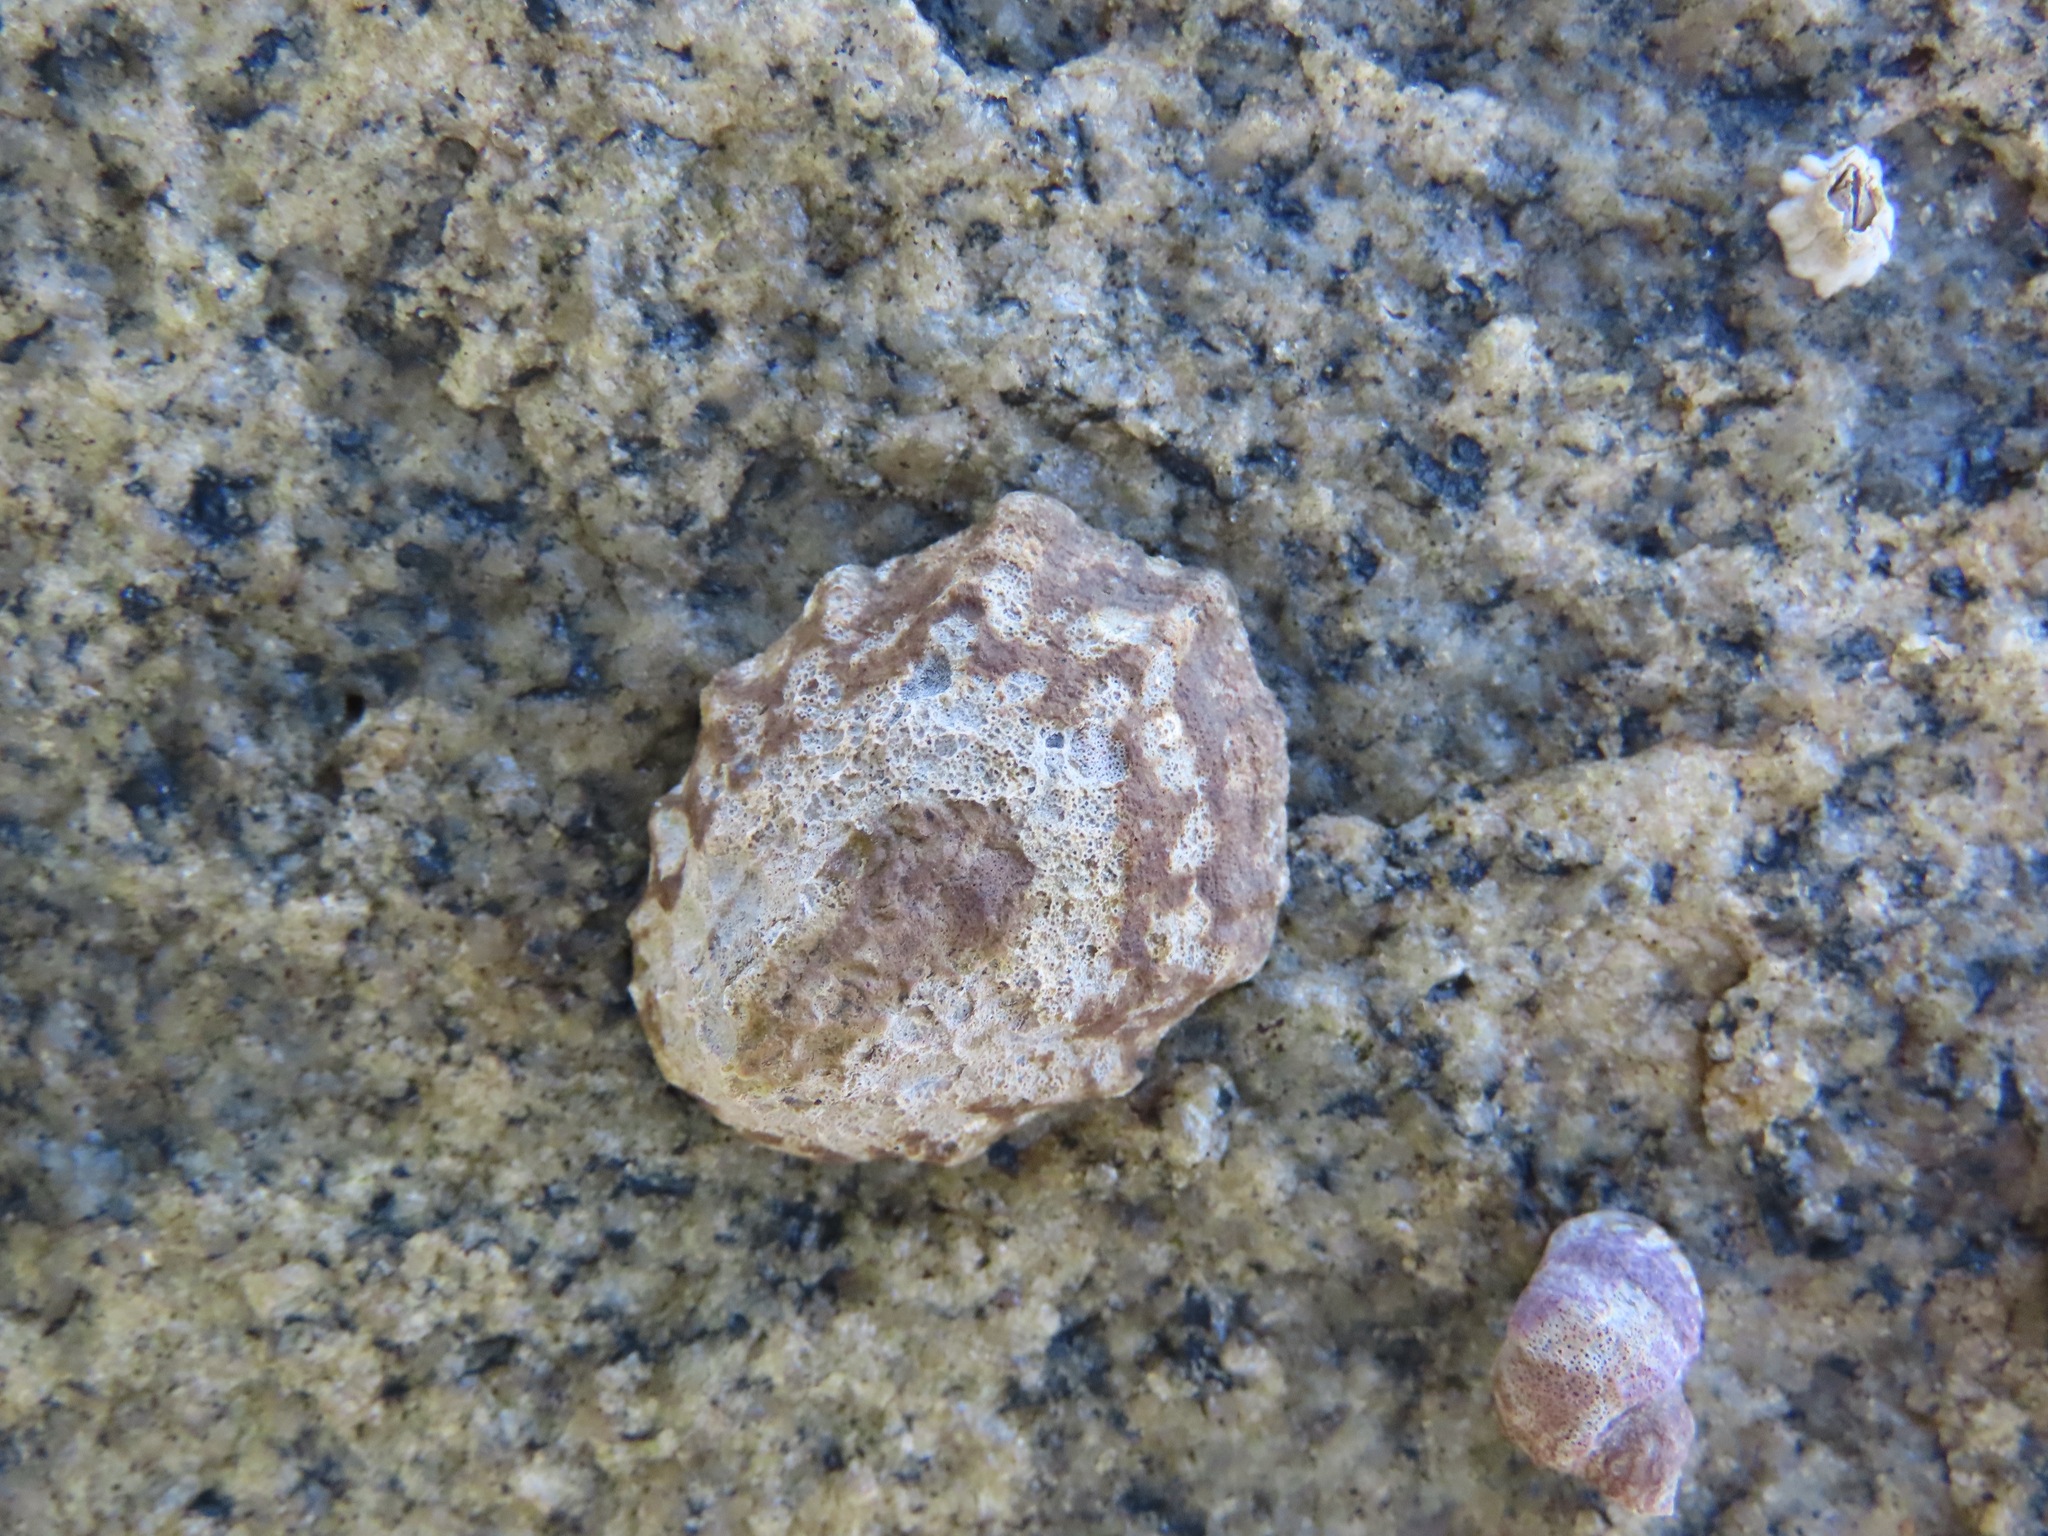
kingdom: Animalia
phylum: Mollusca
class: Gastropoda
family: Lottiidae
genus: Lottia
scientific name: Lottia digitalis
